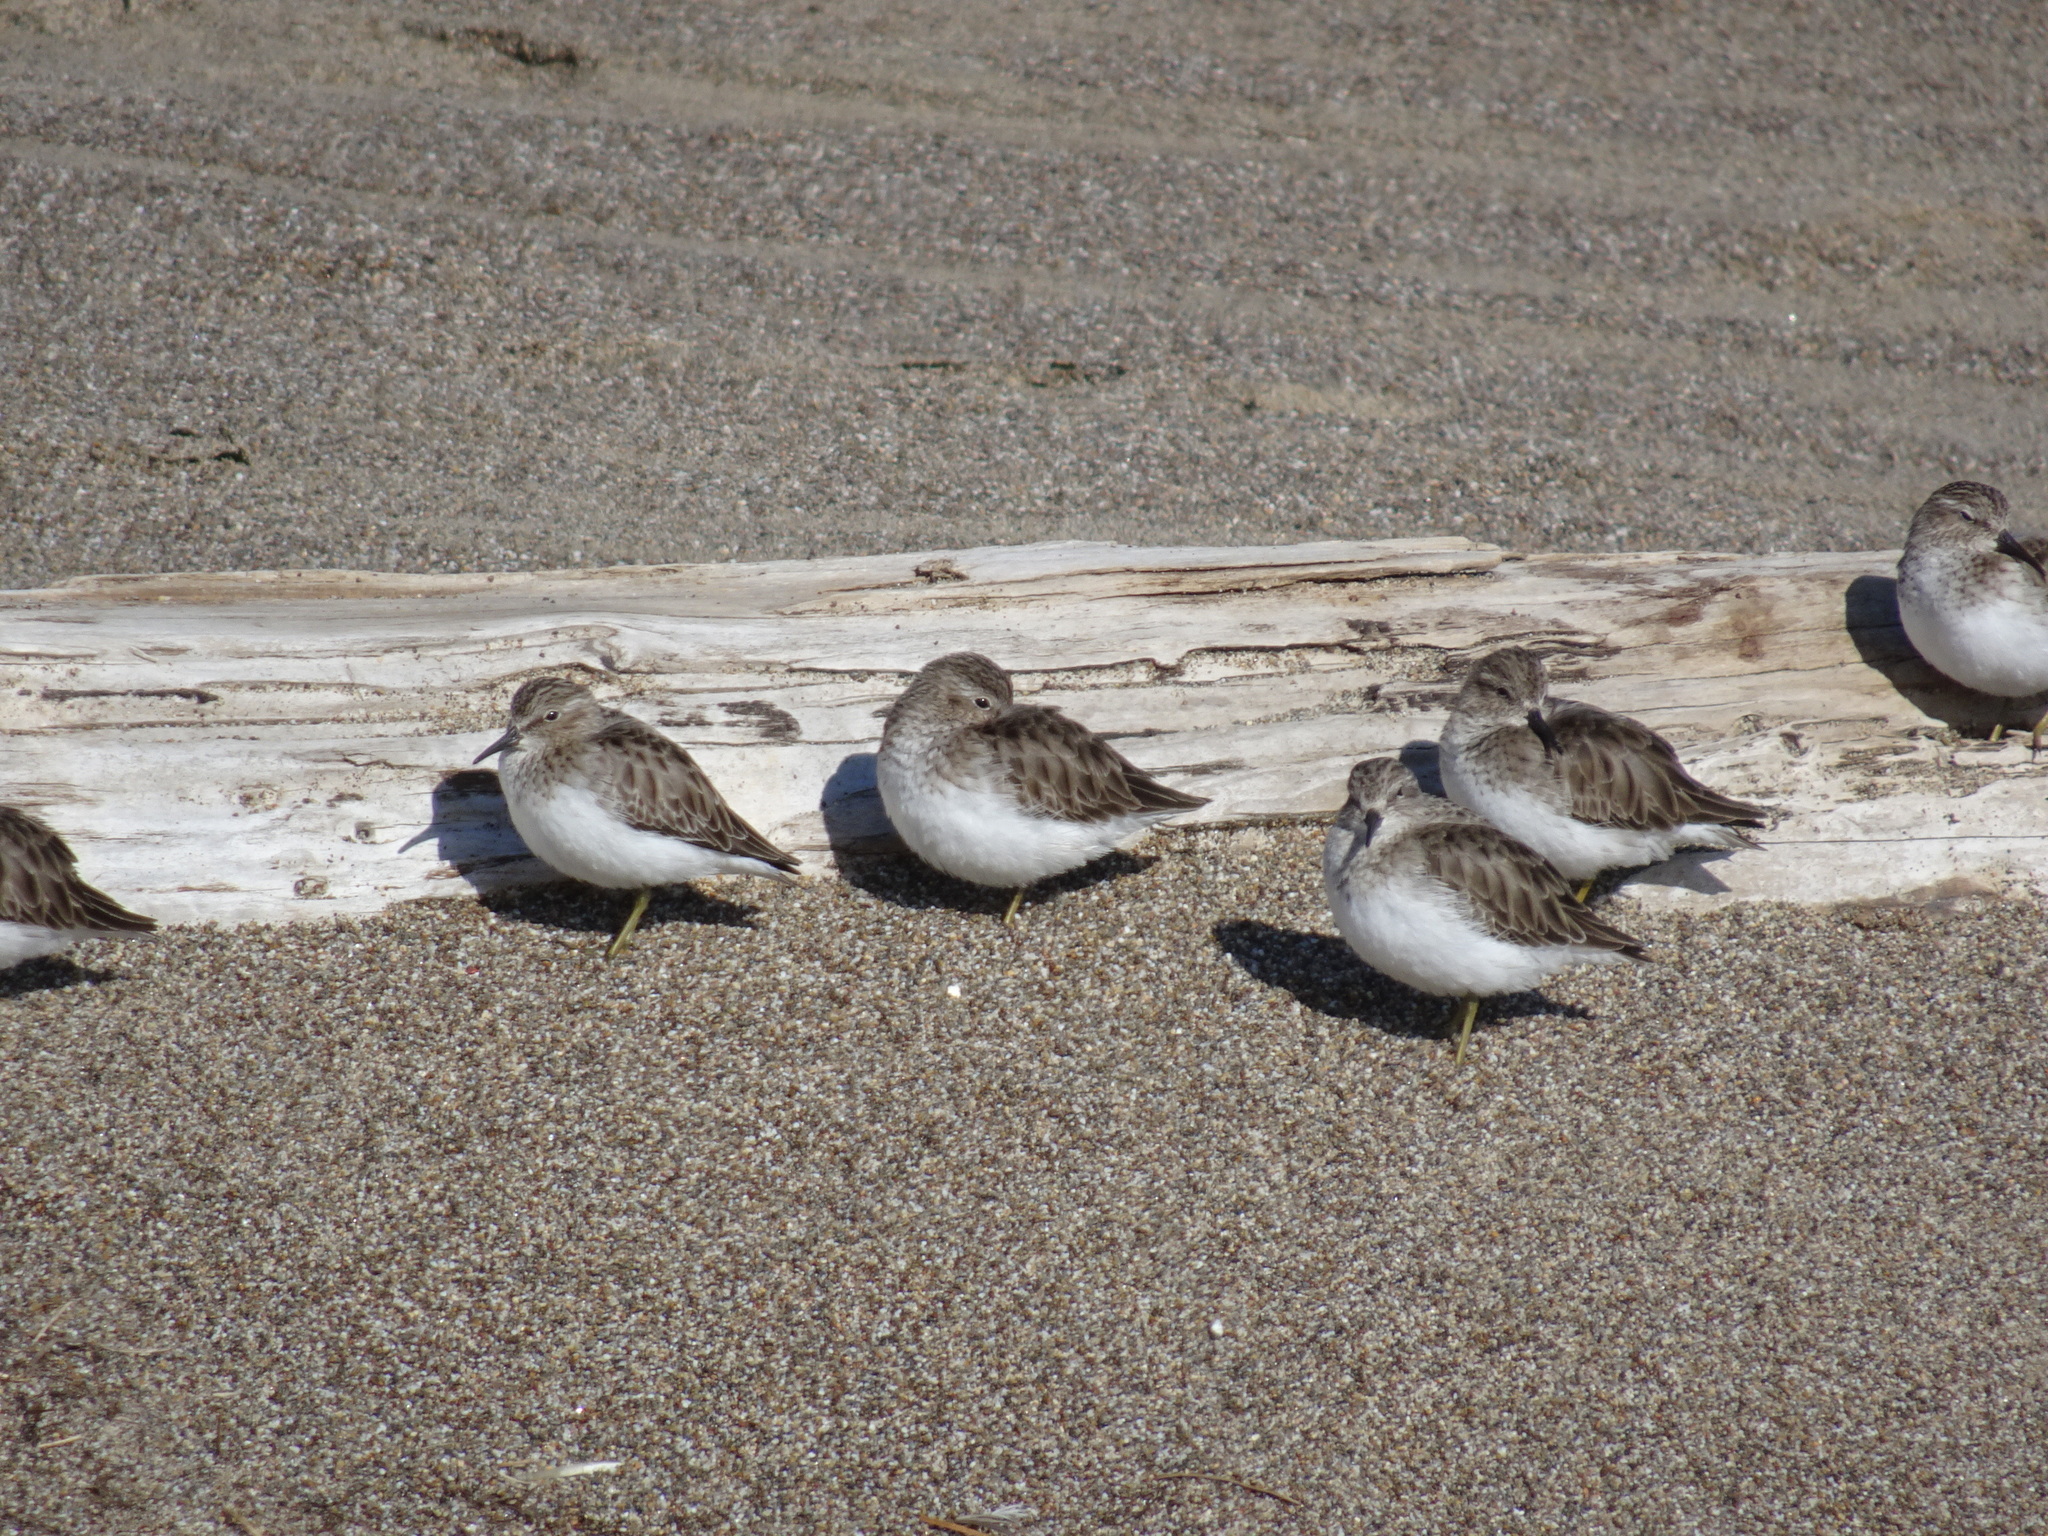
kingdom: Animalia
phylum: Chordata
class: Aves
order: Charadriiformes
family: Scolopacidae
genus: Calidris
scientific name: Calidris minutilla
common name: Least sandpiper
